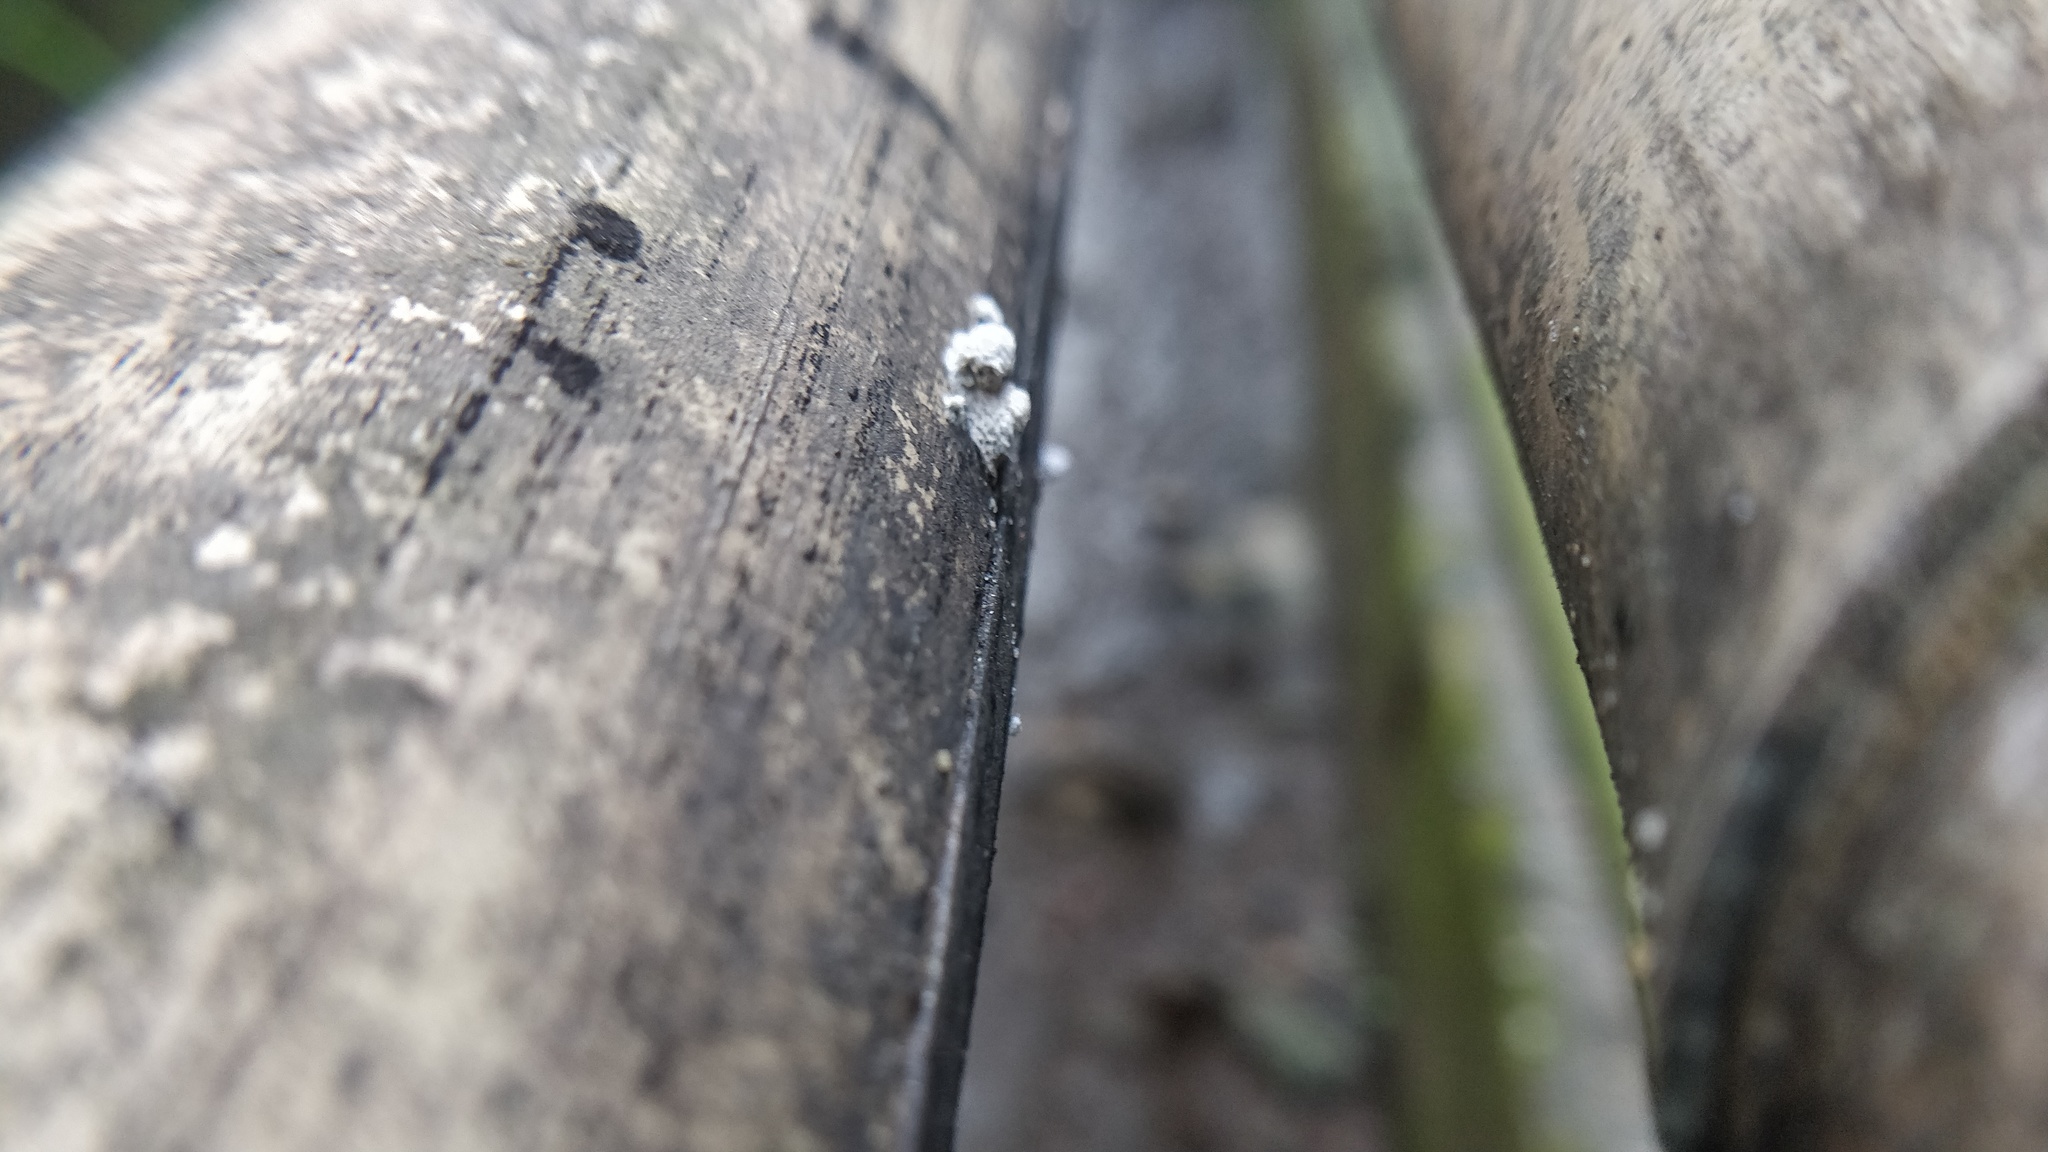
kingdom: Fungi
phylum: Basidiomycota
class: Agaricomycetes
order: Agaricales
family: Schizophyllaceae
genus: Schizophyllum
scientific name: Schizophyllum commune
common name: Common porecrust
